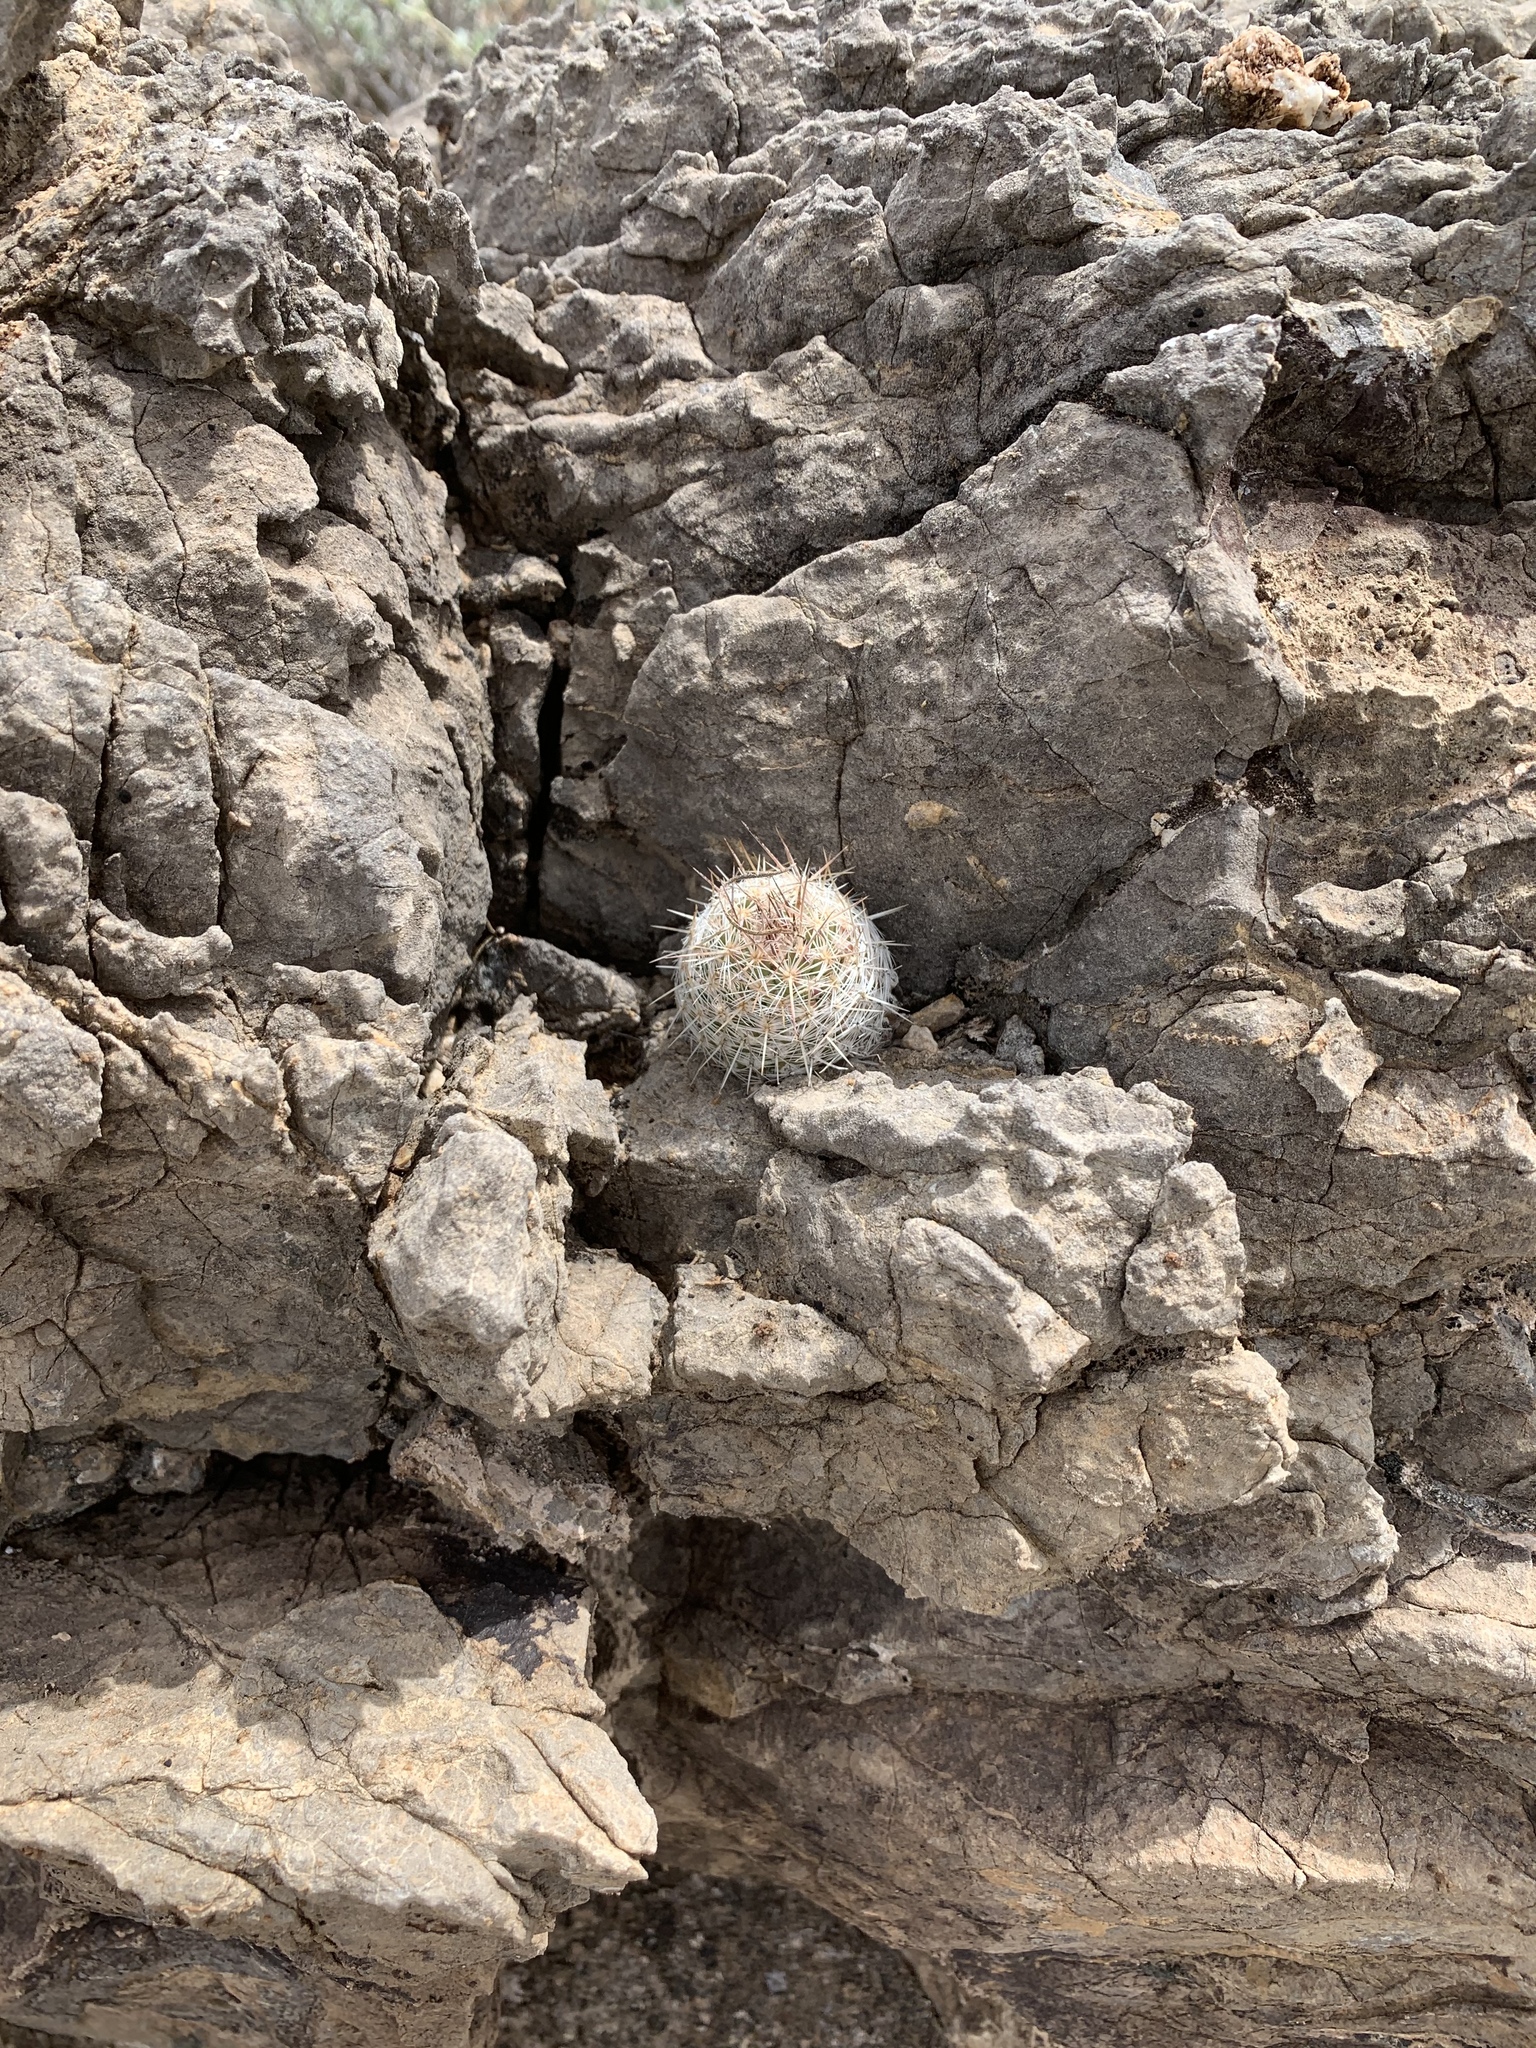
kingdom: Plantae
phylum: Tracheophyta
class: Magnoliopsida
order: Caryophyllales
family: Cactaceae
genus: Cochemiea
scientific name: Cochemiea grahamii
